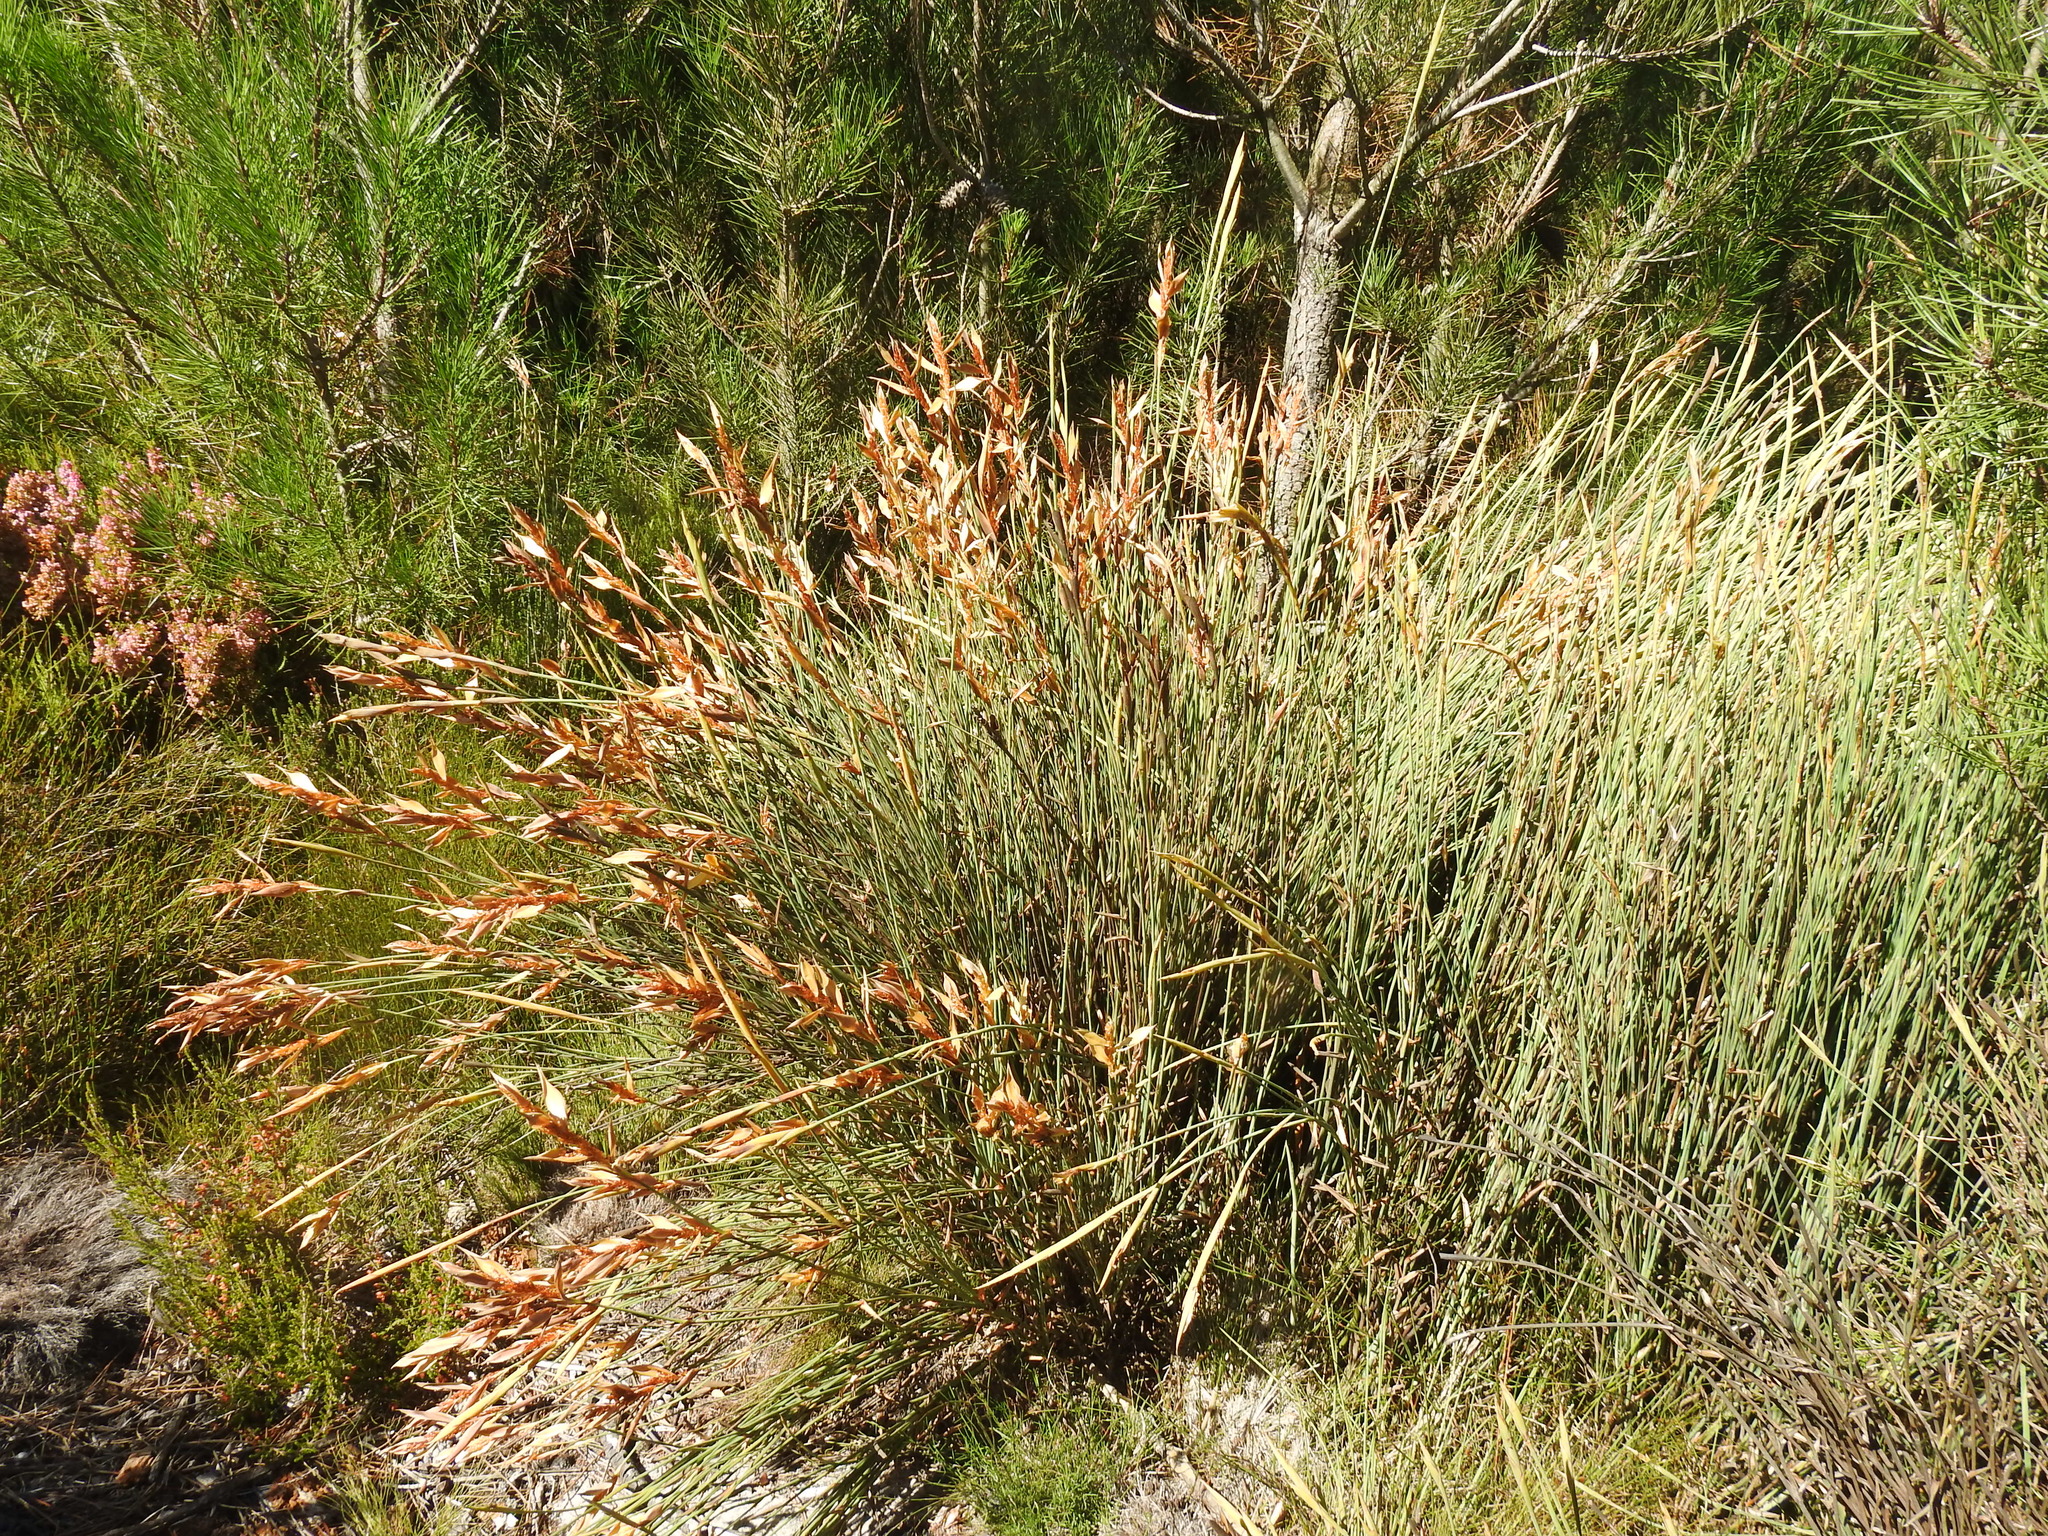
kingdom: Plantae
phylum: Tracheophyta
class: Liliopsida
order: Poales
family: Restionaceae
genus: Elegia
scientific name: Elegia neesii
